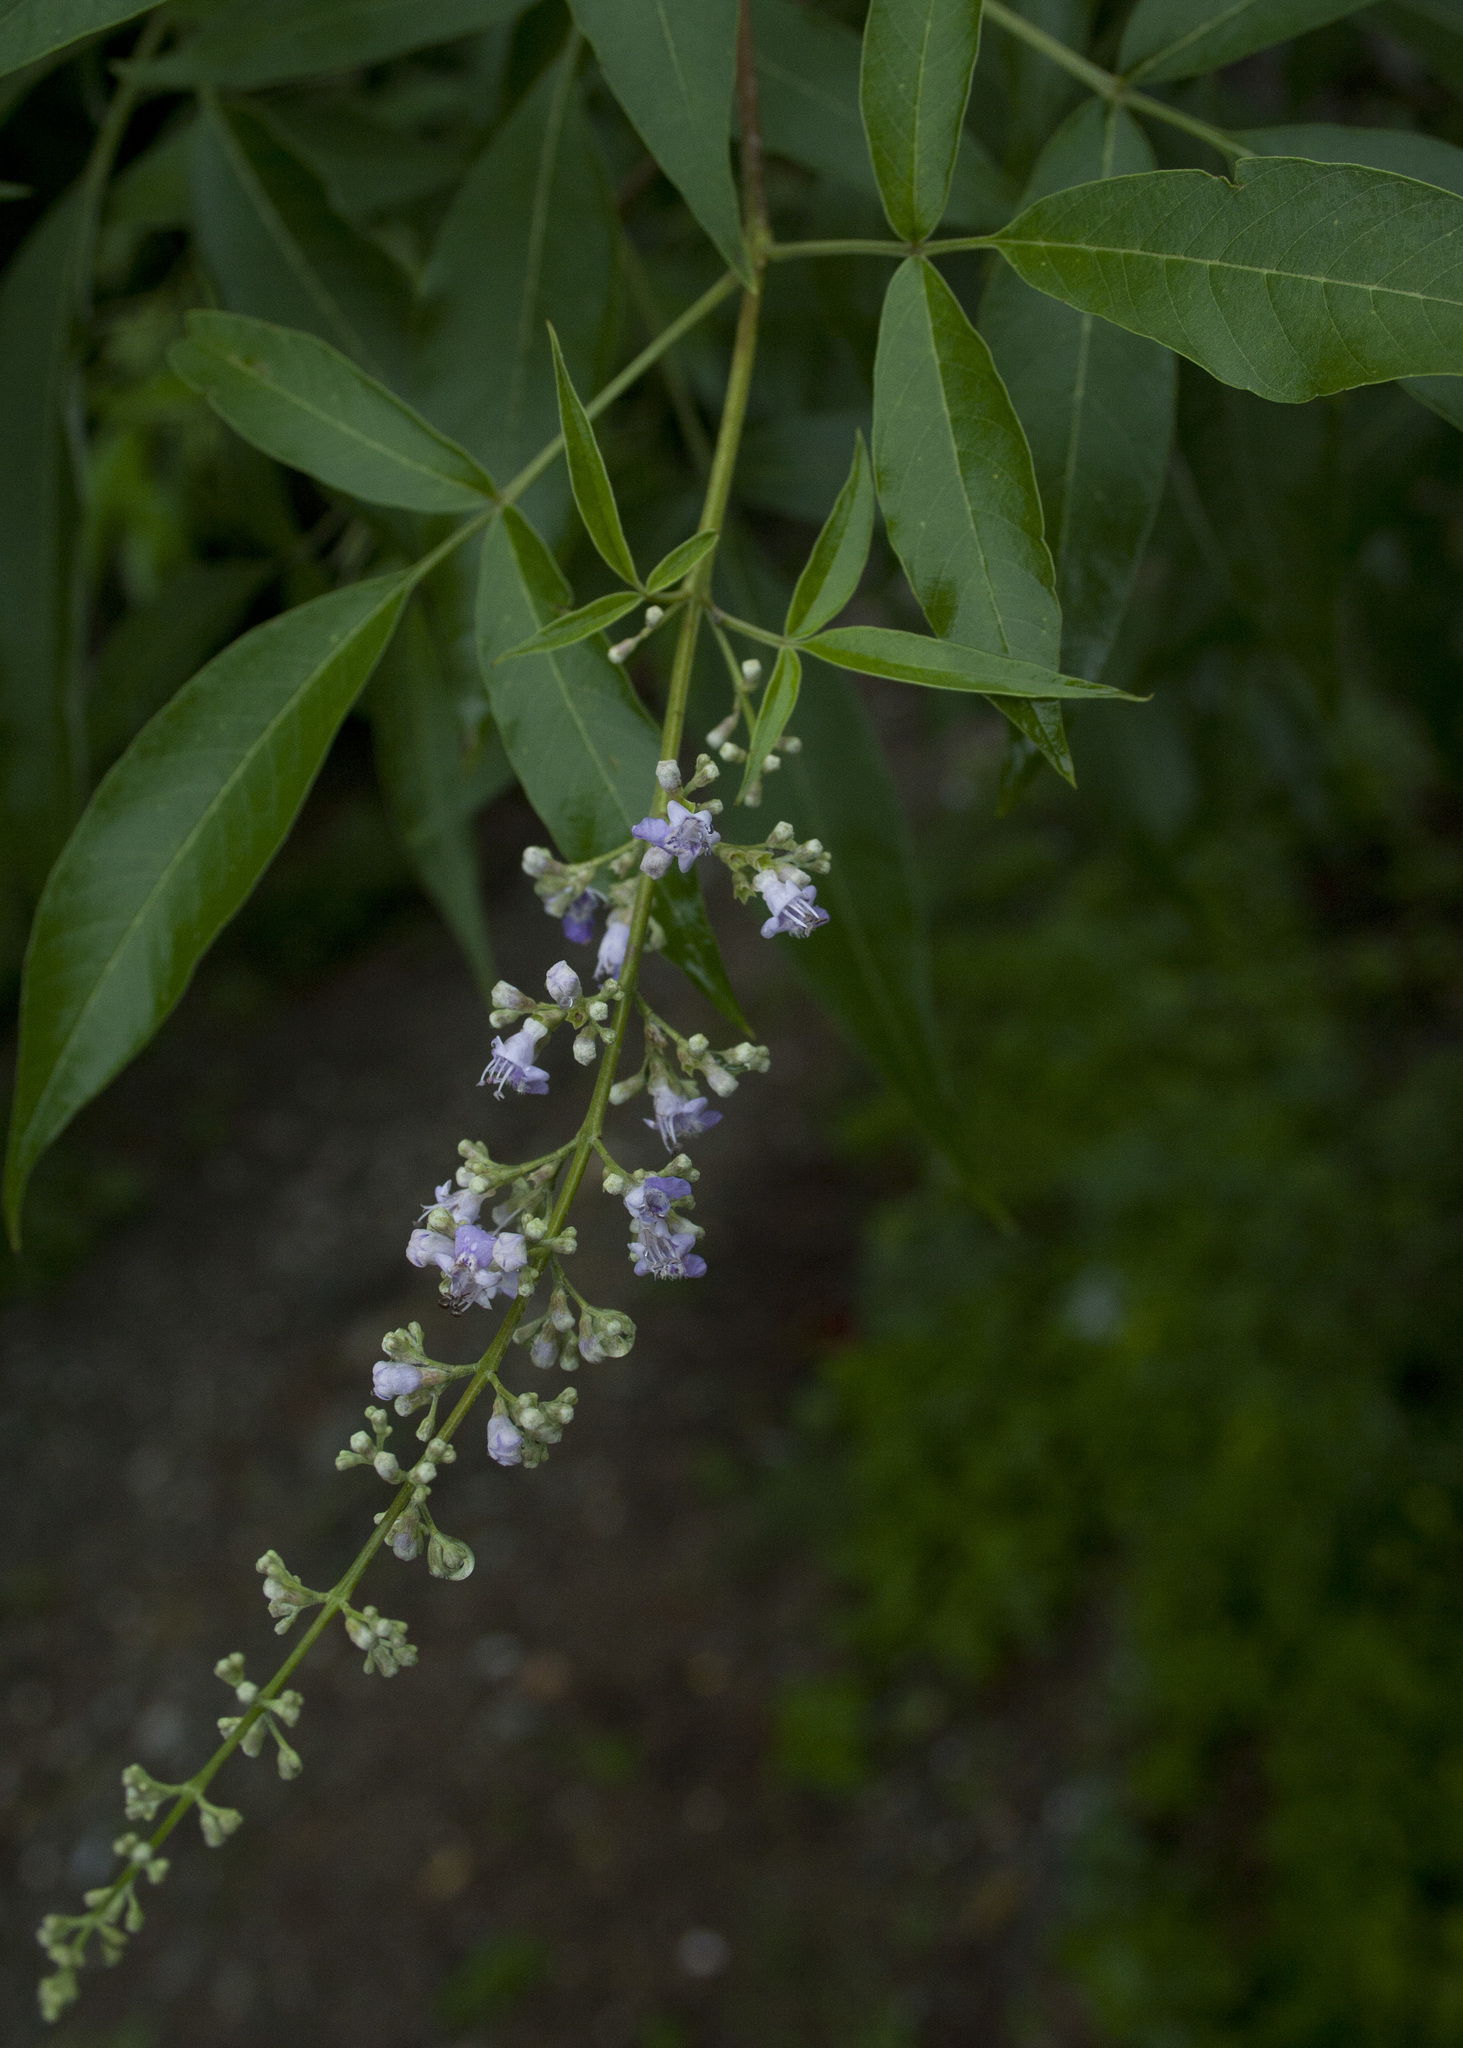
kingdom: Plantae
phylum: Tracheophyta
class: Magnoliopsida
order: Lamiales
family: Lamiaceae
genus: Vitex
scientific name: Vitex negundo
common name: Chinese chastetree
